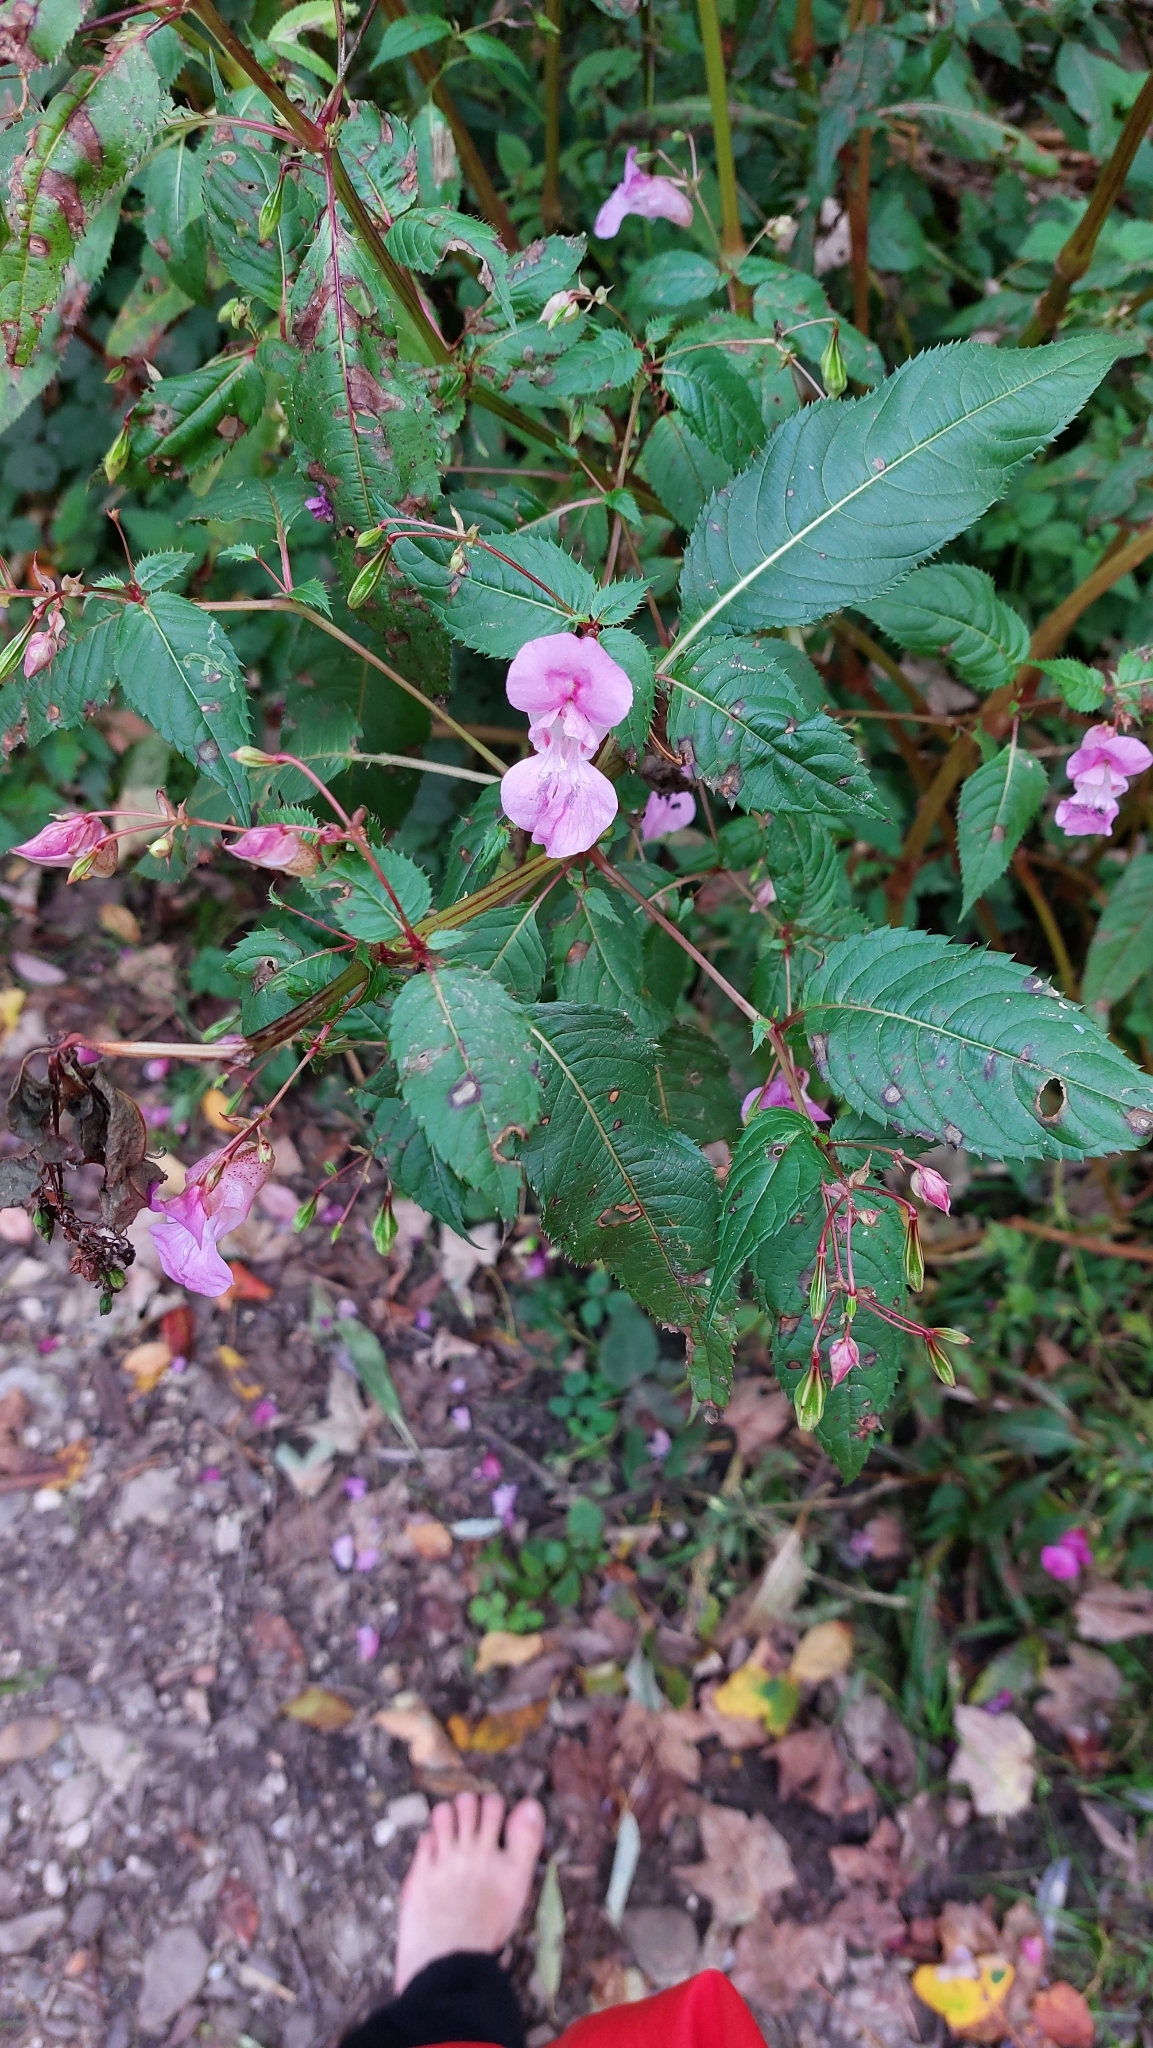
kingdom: Plantae
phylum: Tracheophyta
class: Magnoliopsida
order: Ericales
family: Balsaminaceae
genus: Impatiens
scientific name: Impatiens glandulifera
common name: Himalayan balsam
